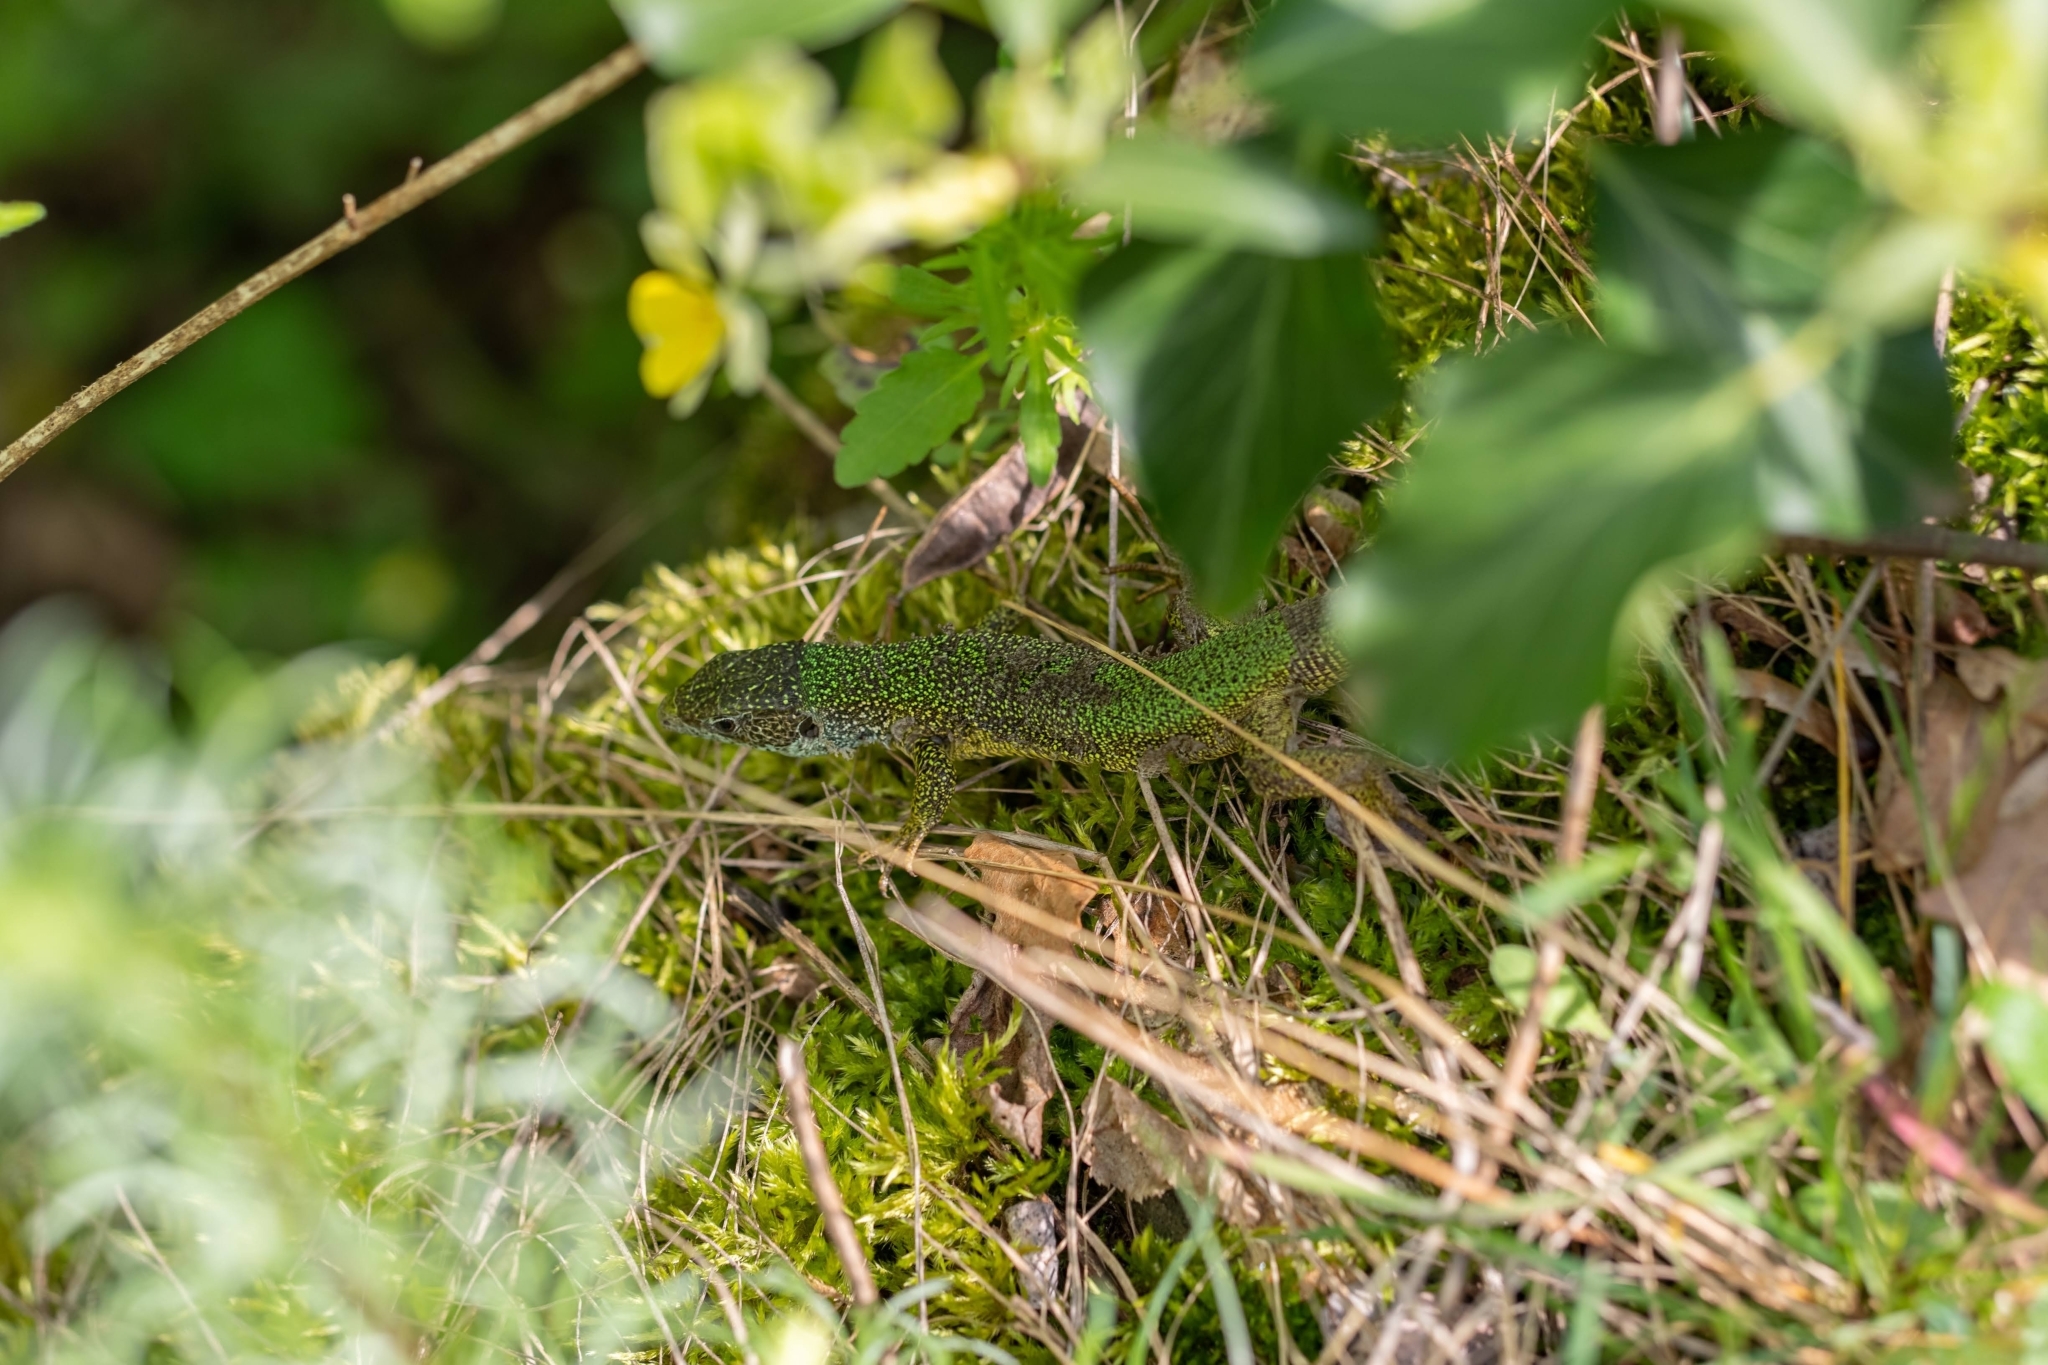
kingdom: Animalia
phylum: Chordata
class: Squamata
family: Lacertidae
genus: Lacerta
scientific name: Lacerta viridis
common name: European green lizard
